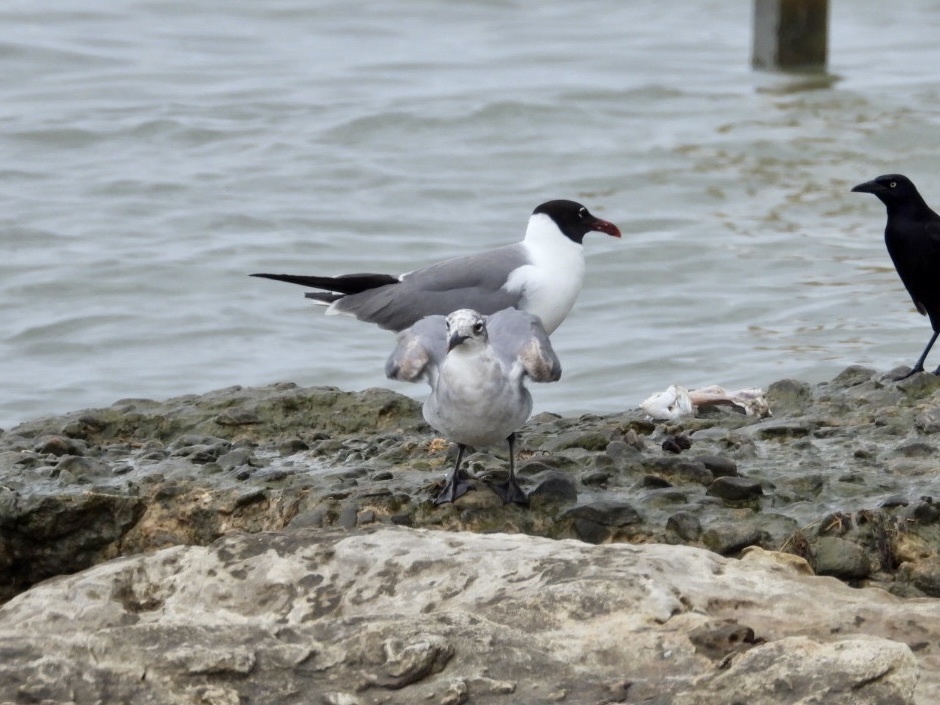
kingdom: Animalia
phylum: Chordata
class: Aves
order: Charadriiformes
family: Laridae
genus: Leucophaeus
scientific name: Leucophaeus atricilla
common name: Laughing gull
